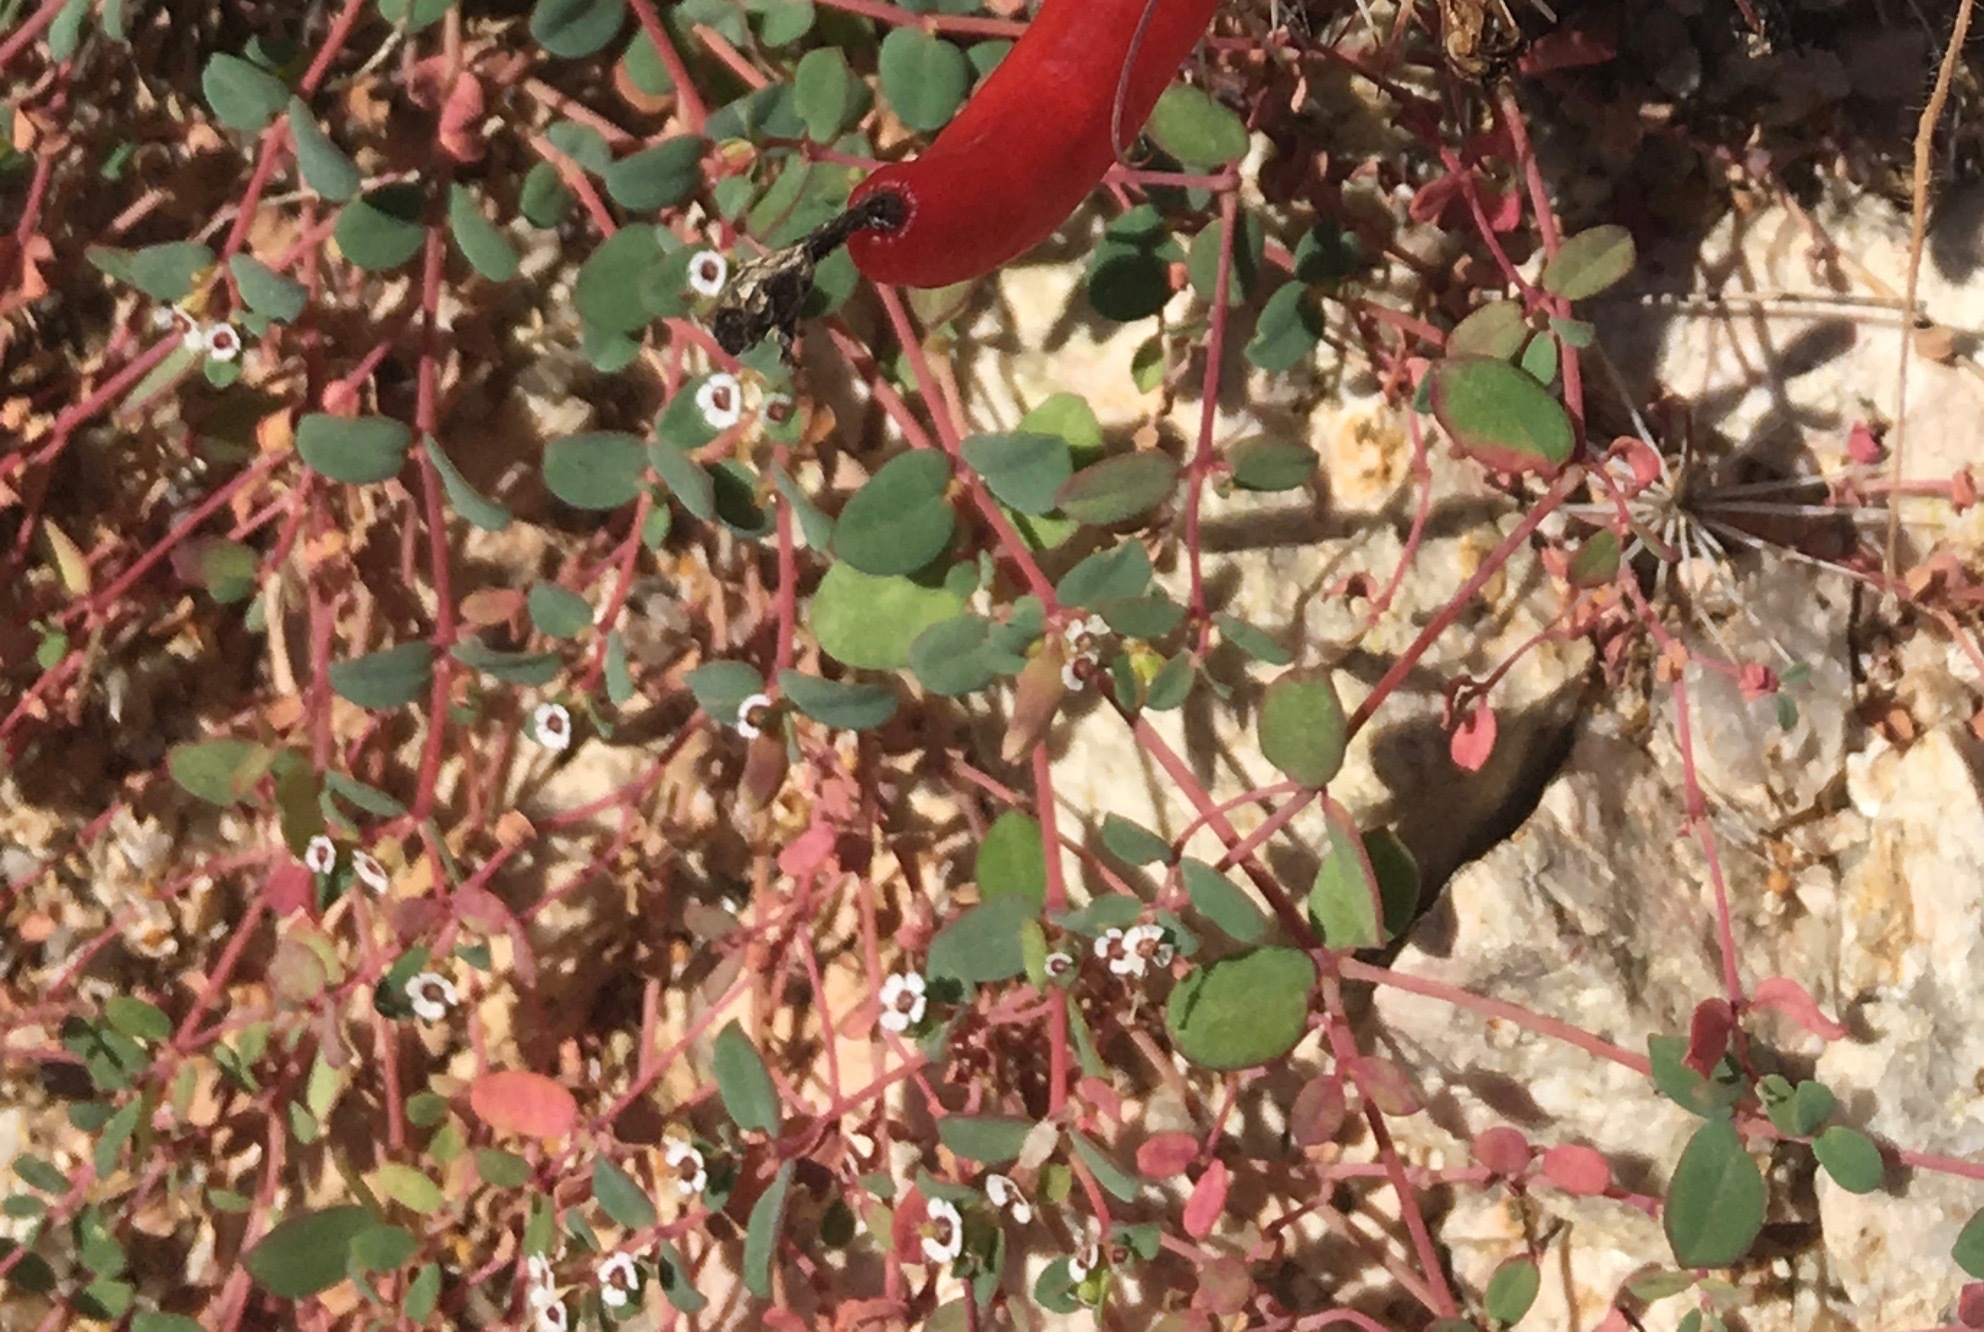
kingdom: Plantae
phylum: Tracheophyta
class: Magnoliopsida
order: Malpighiales
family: Euphorbiaceae
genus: Euphorbia
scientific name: Euphorbia polycarpa
